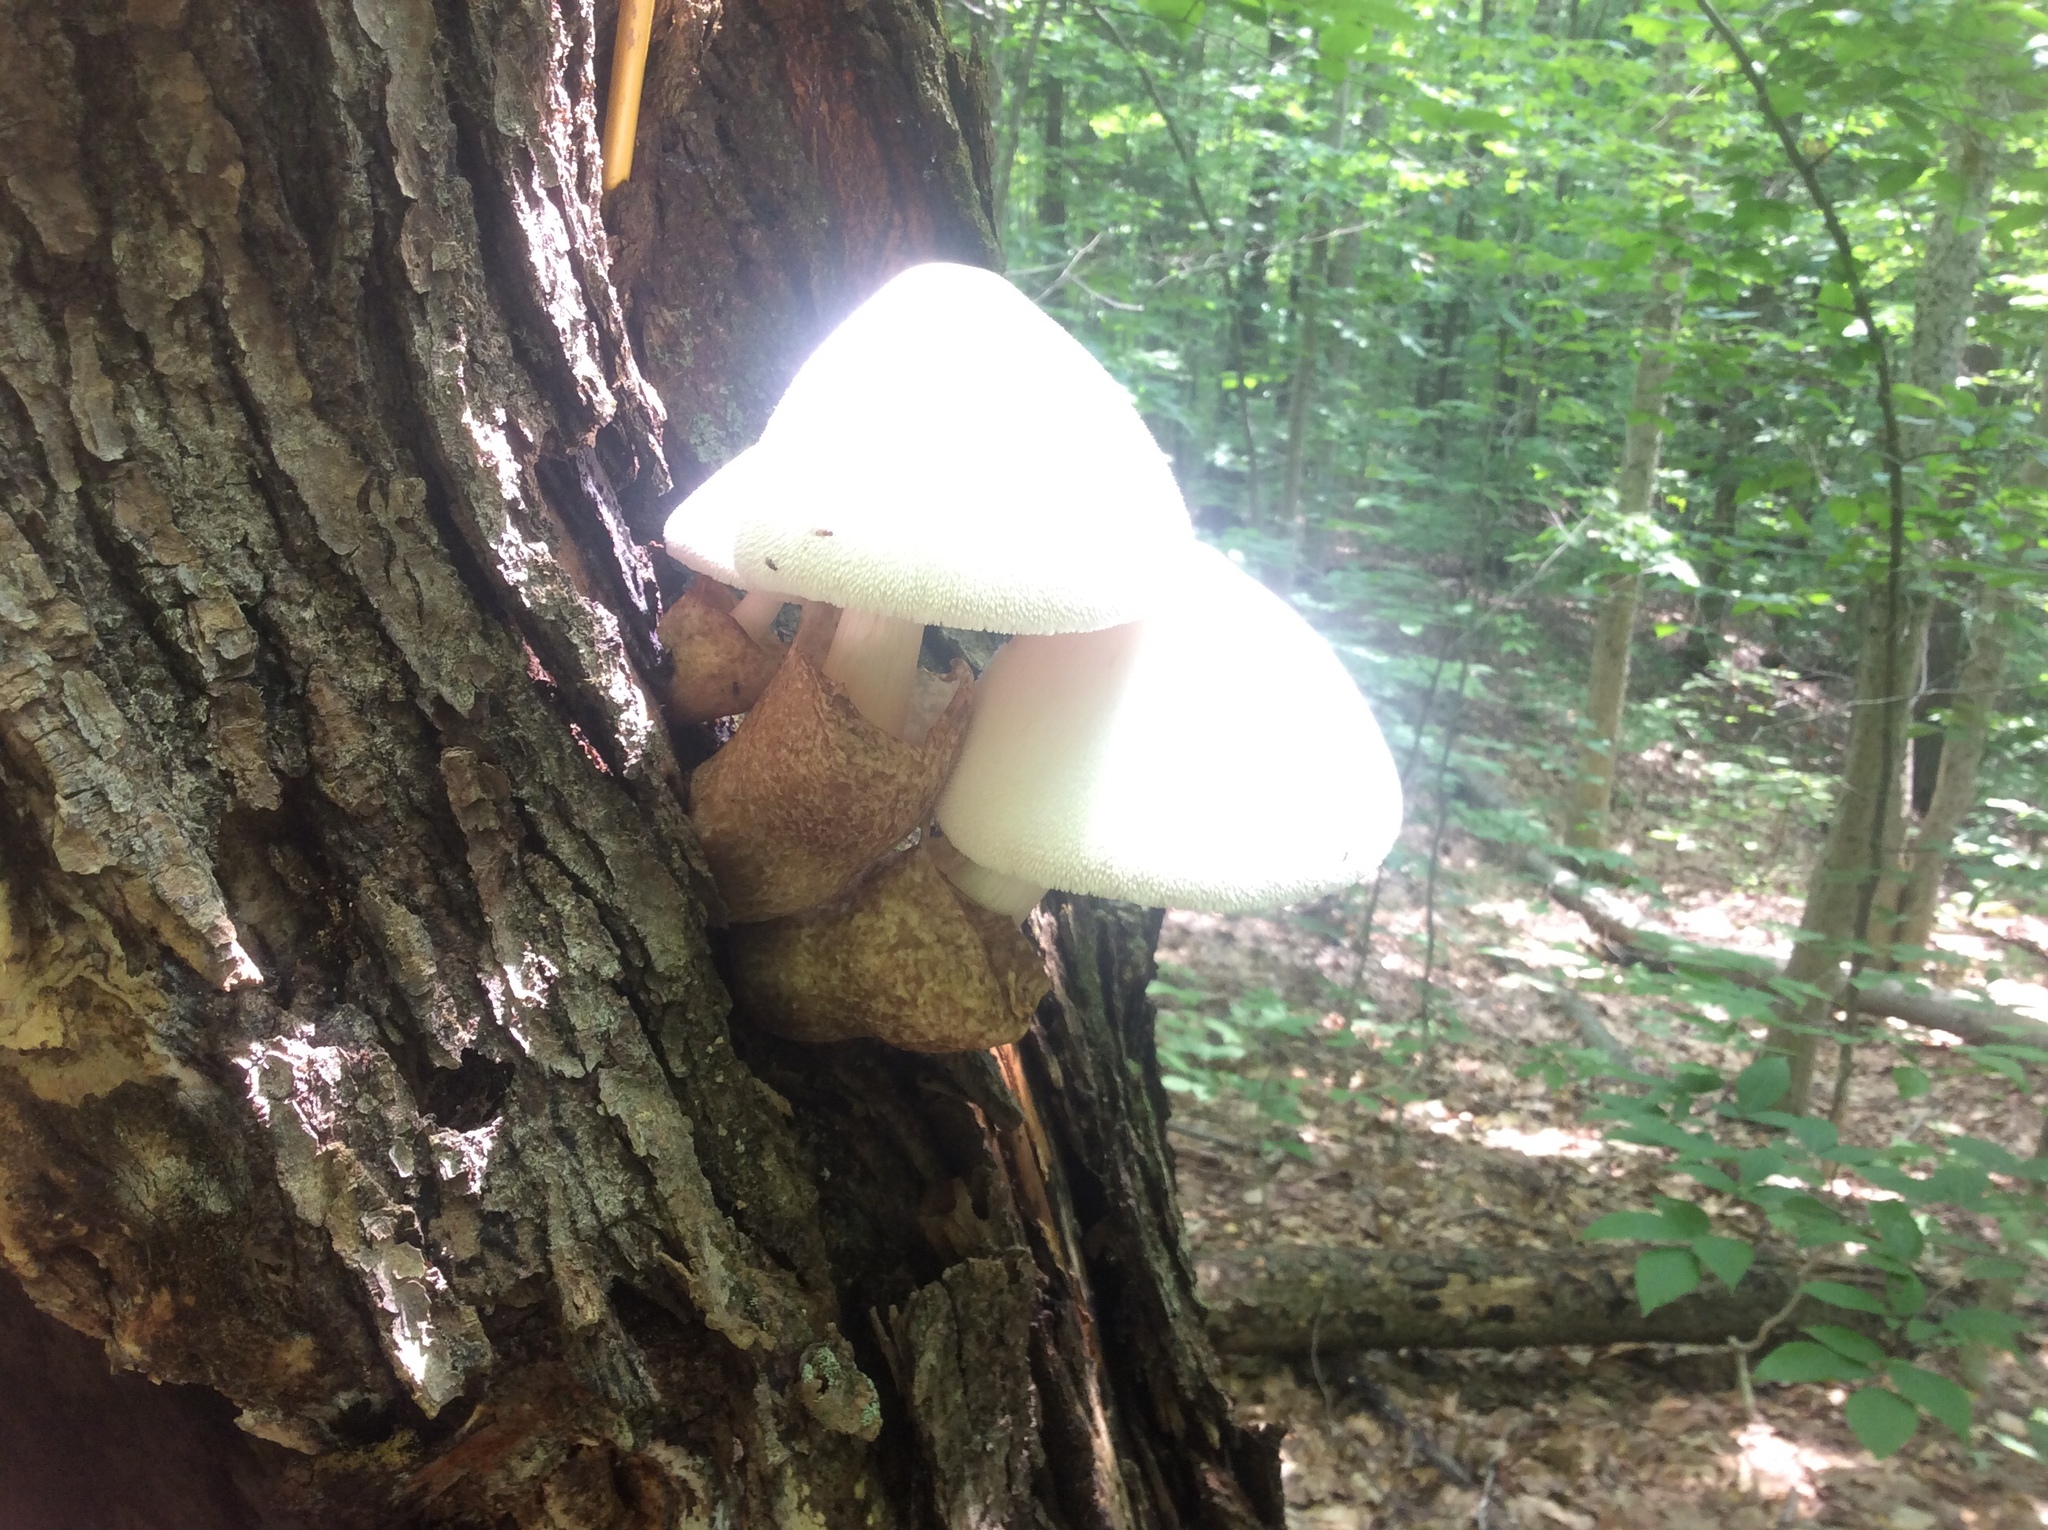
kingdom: Fungi
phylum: Basidiomycota
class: Agaricomycetes
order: Agaricales
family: Pluteaceae
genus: Volvariella
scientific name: Volvariella bombycina
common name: Silky rosegill
